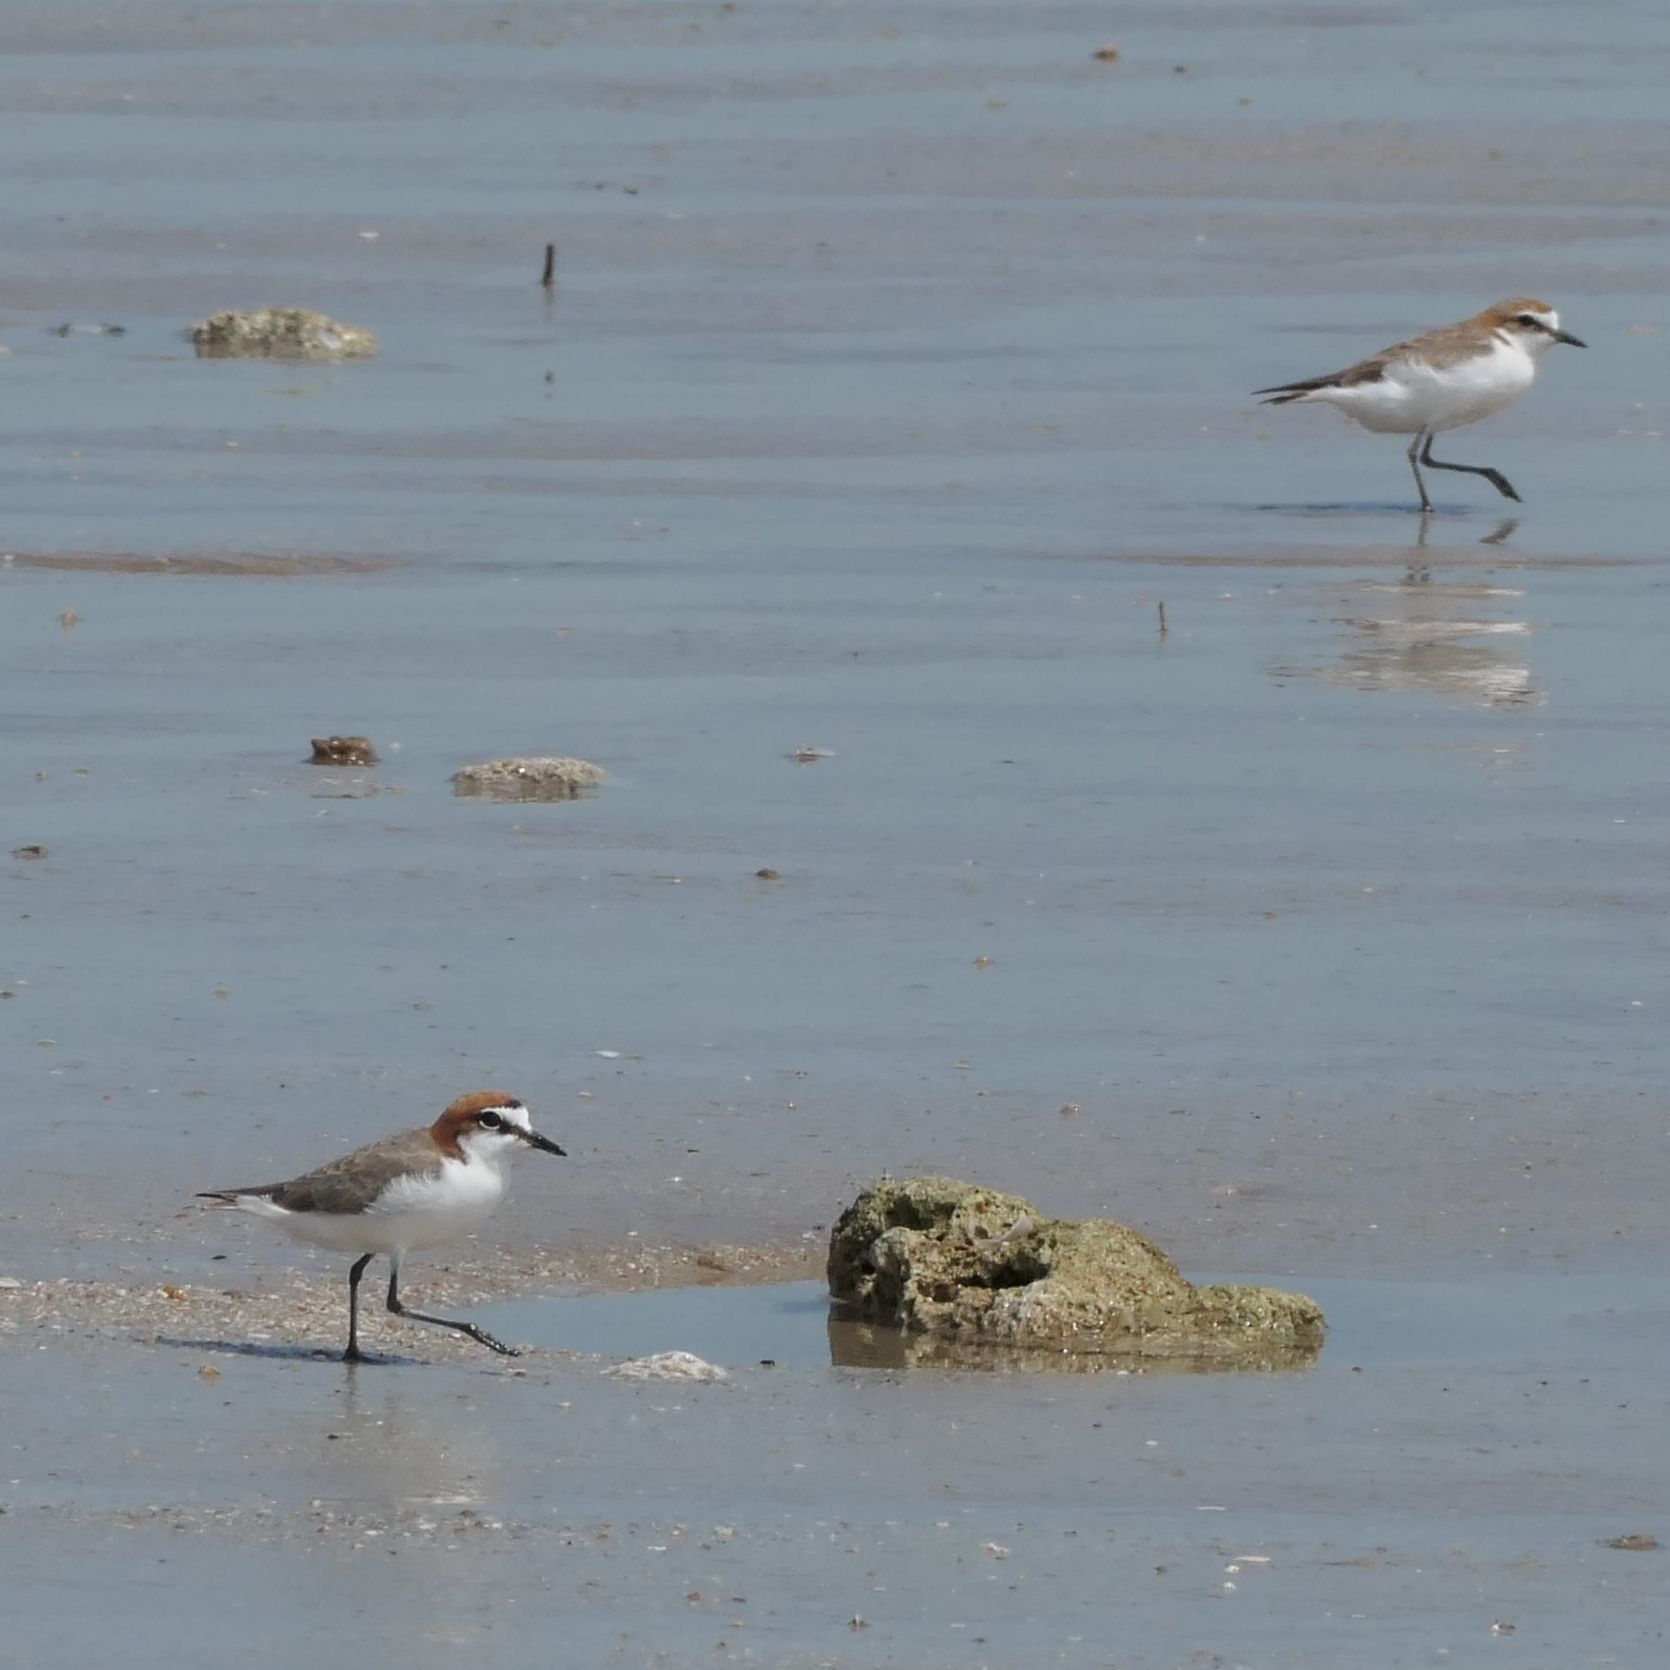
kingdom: Animalia
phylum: Chordata
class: Aves
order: Charadriiformes
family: Charadriidae
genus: Anarhynchus
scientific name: Anarhynchus
